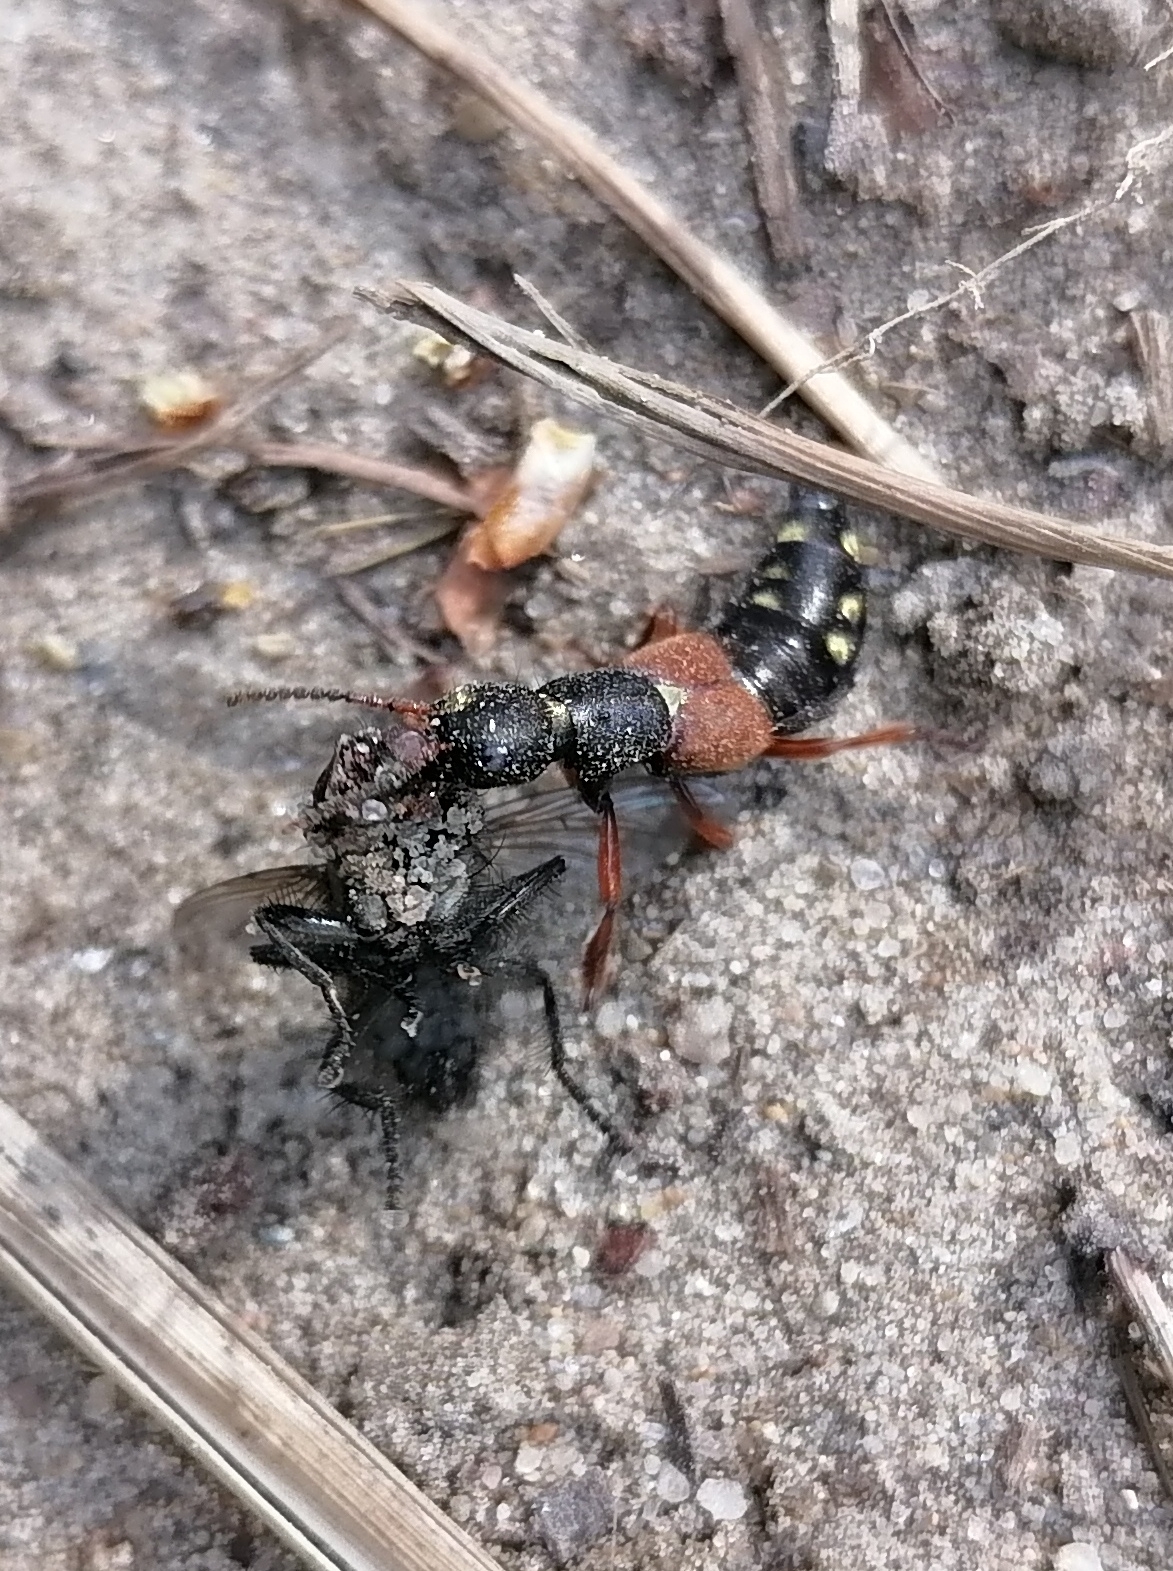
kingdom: Animalia
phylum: Arthropoda
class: Insecta
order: Coleoptera
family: Staphylinidae
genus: Staphylinus
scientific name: Staphylinus erythropterus
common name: Staph beetle
